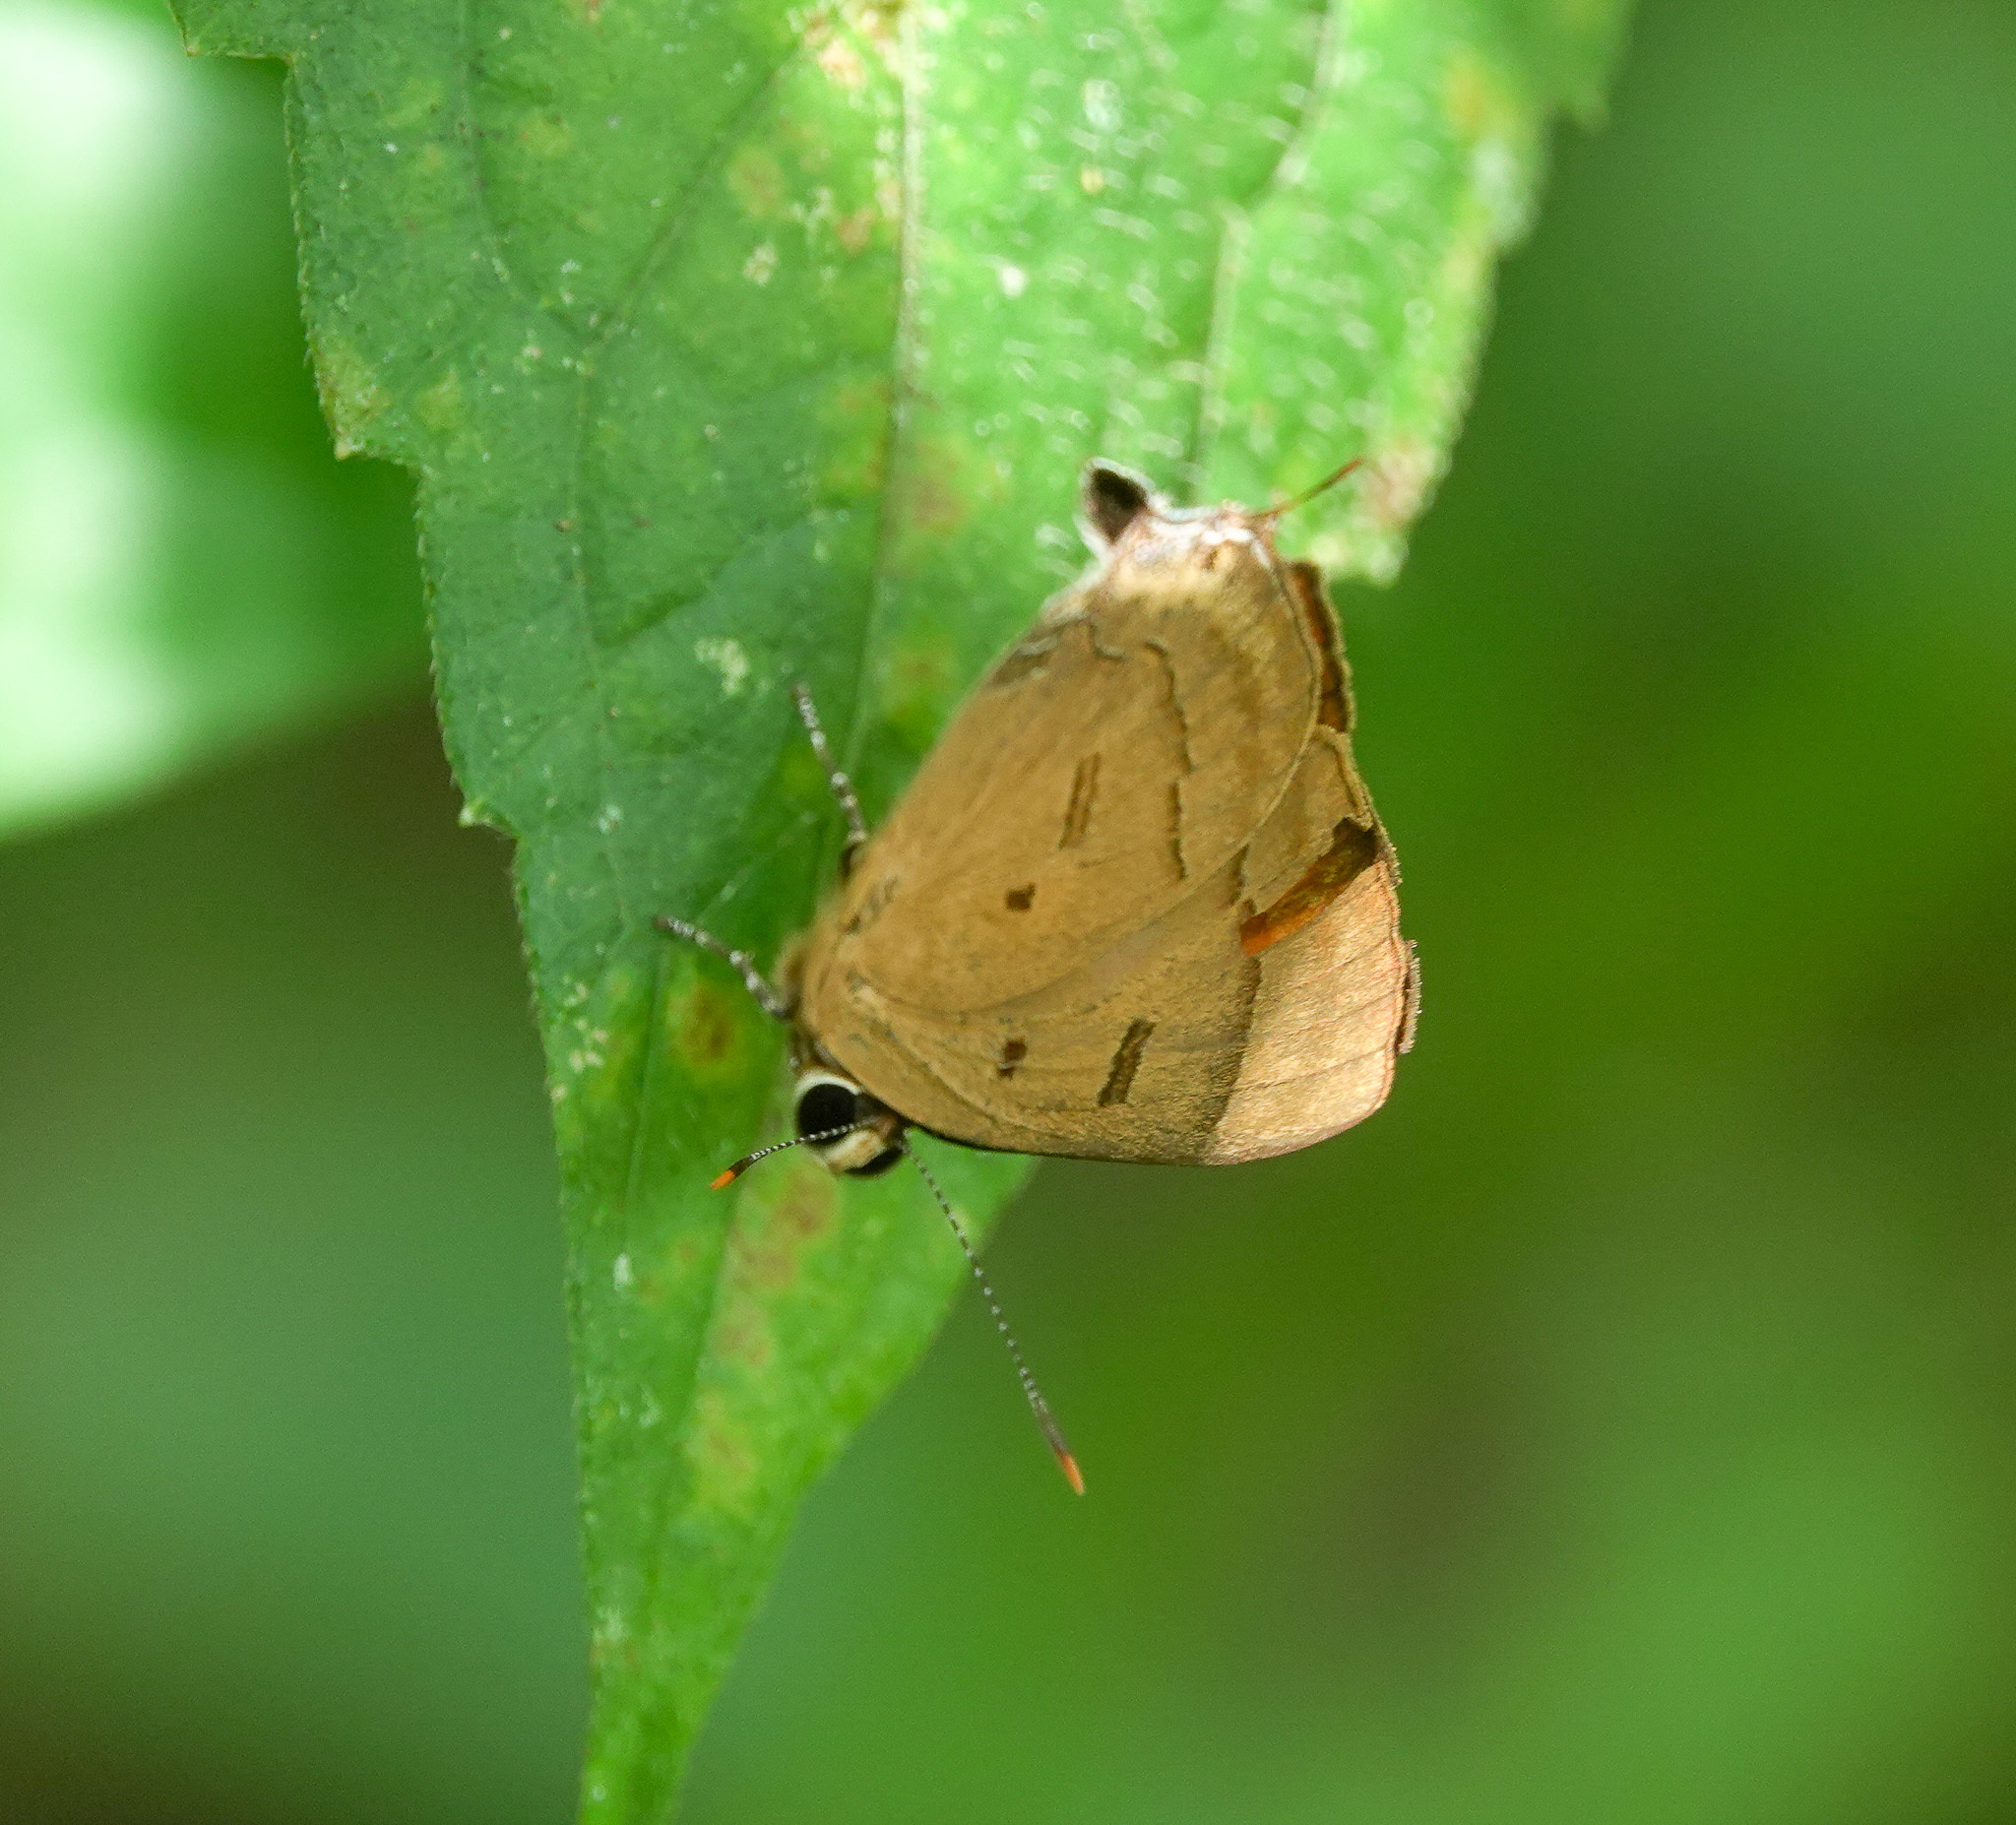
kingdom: Animalia
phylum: Arthropoda
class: Insecta
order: Lepidoptera
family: Lycaenidae
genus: Rapala
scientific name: Rapala pheretima
